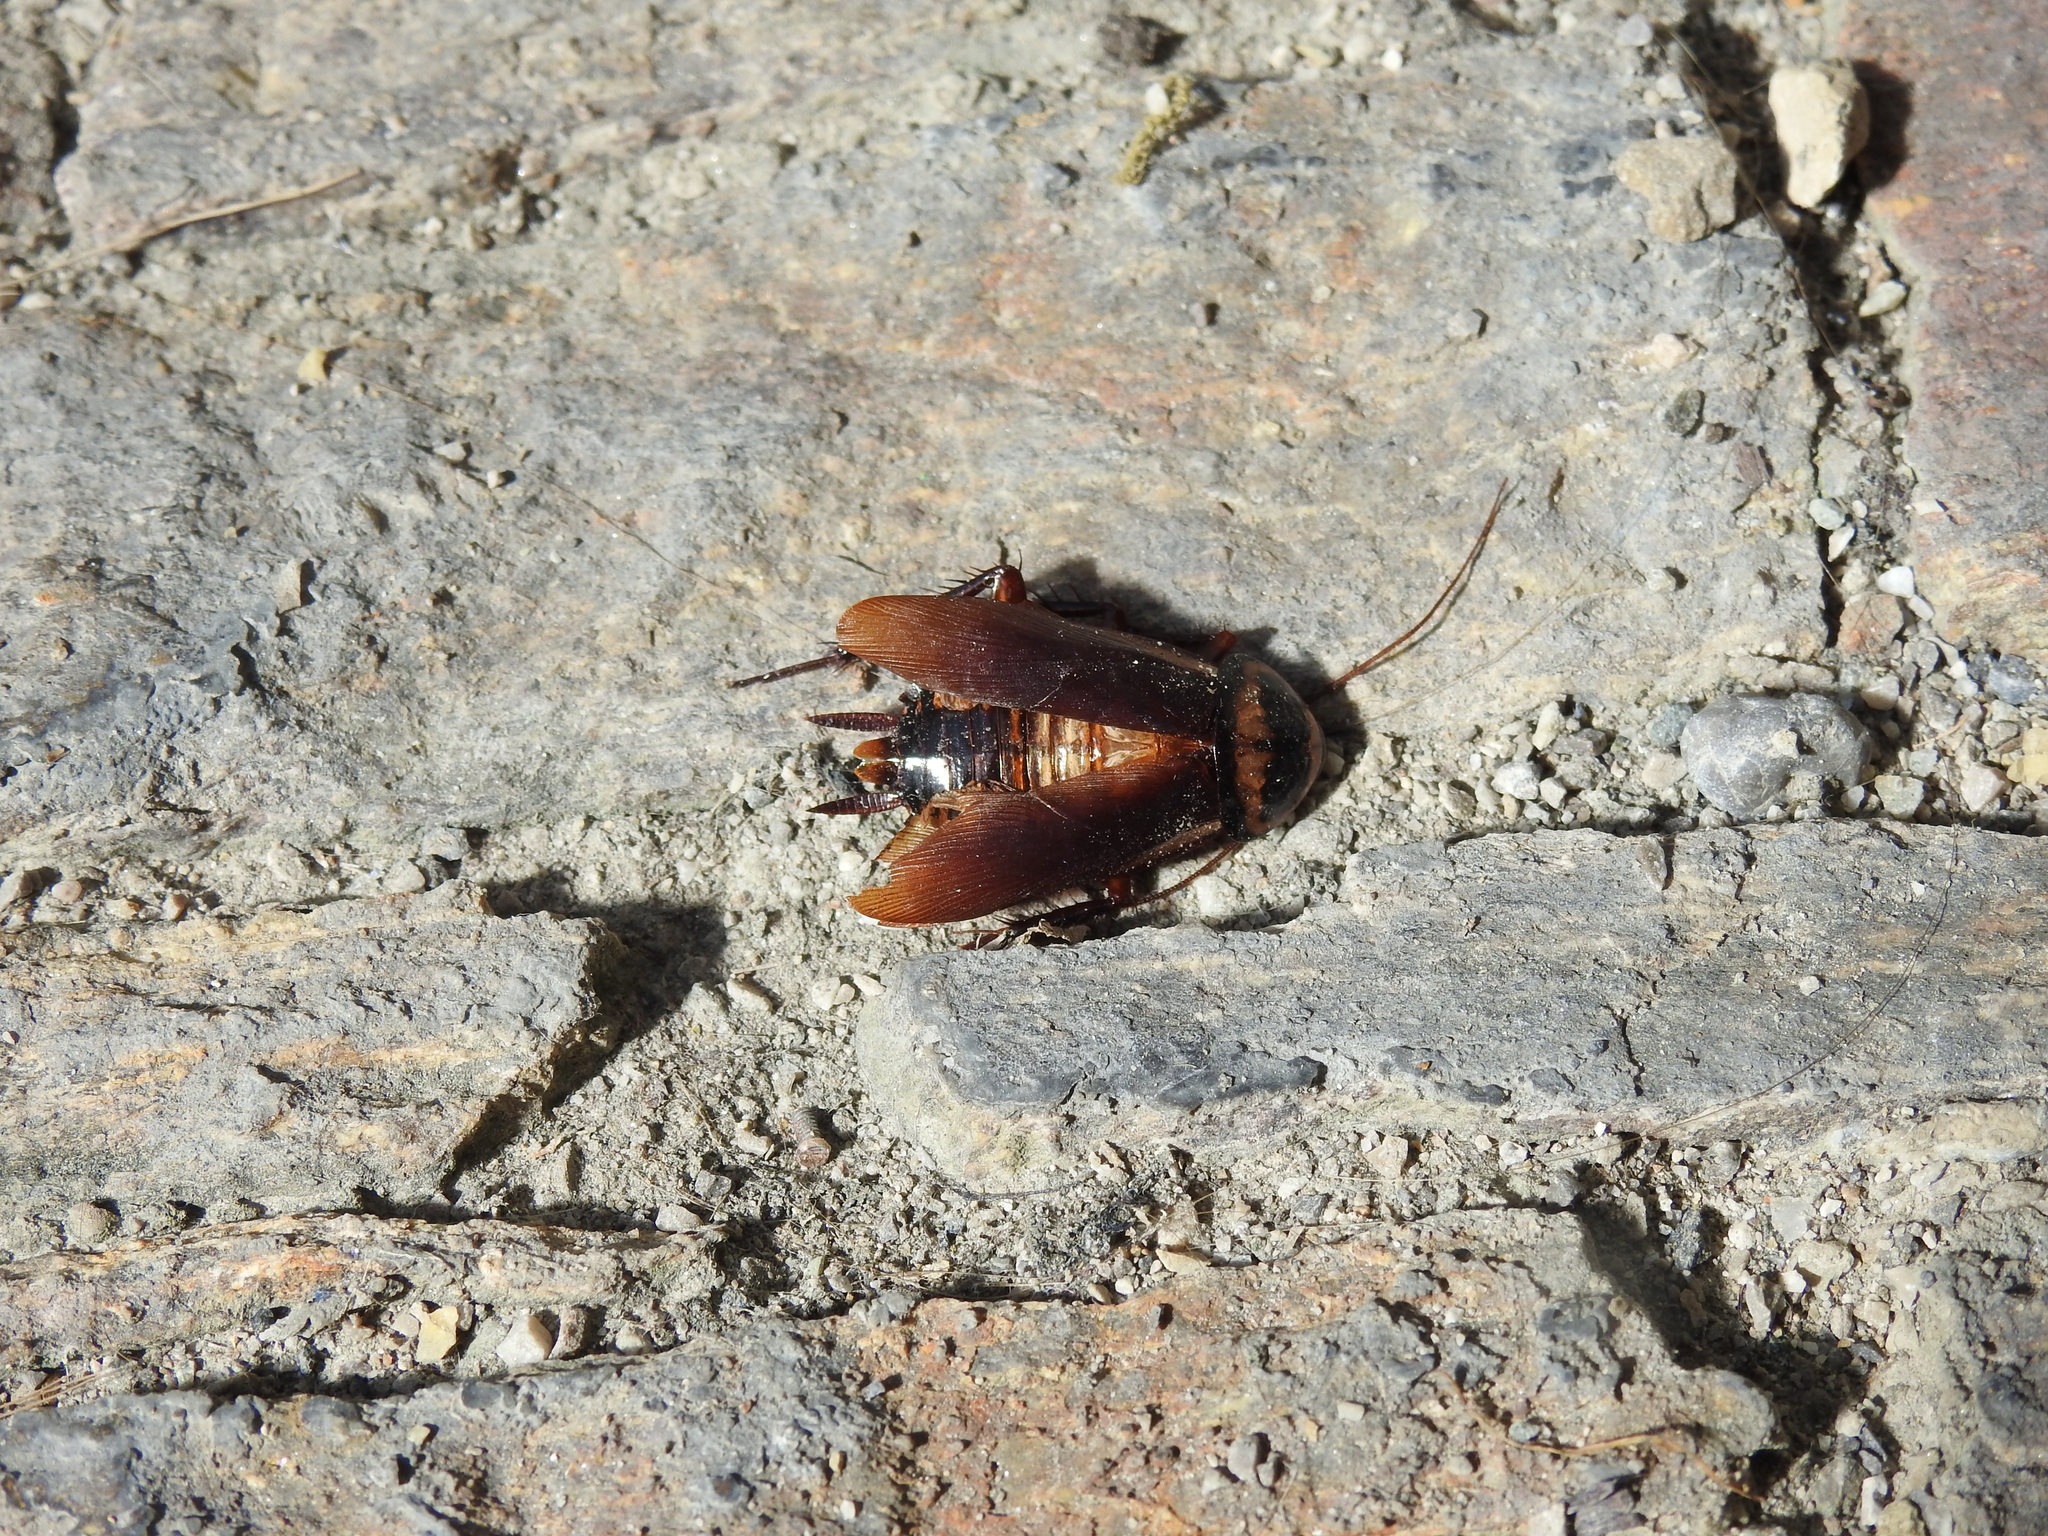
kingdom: Animalia
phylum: Arthropoda
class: Insecta
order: Blattodea
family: Blattidae
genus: Periplaneta
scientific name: Periplaneta australasiae
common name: Australian cockroach
